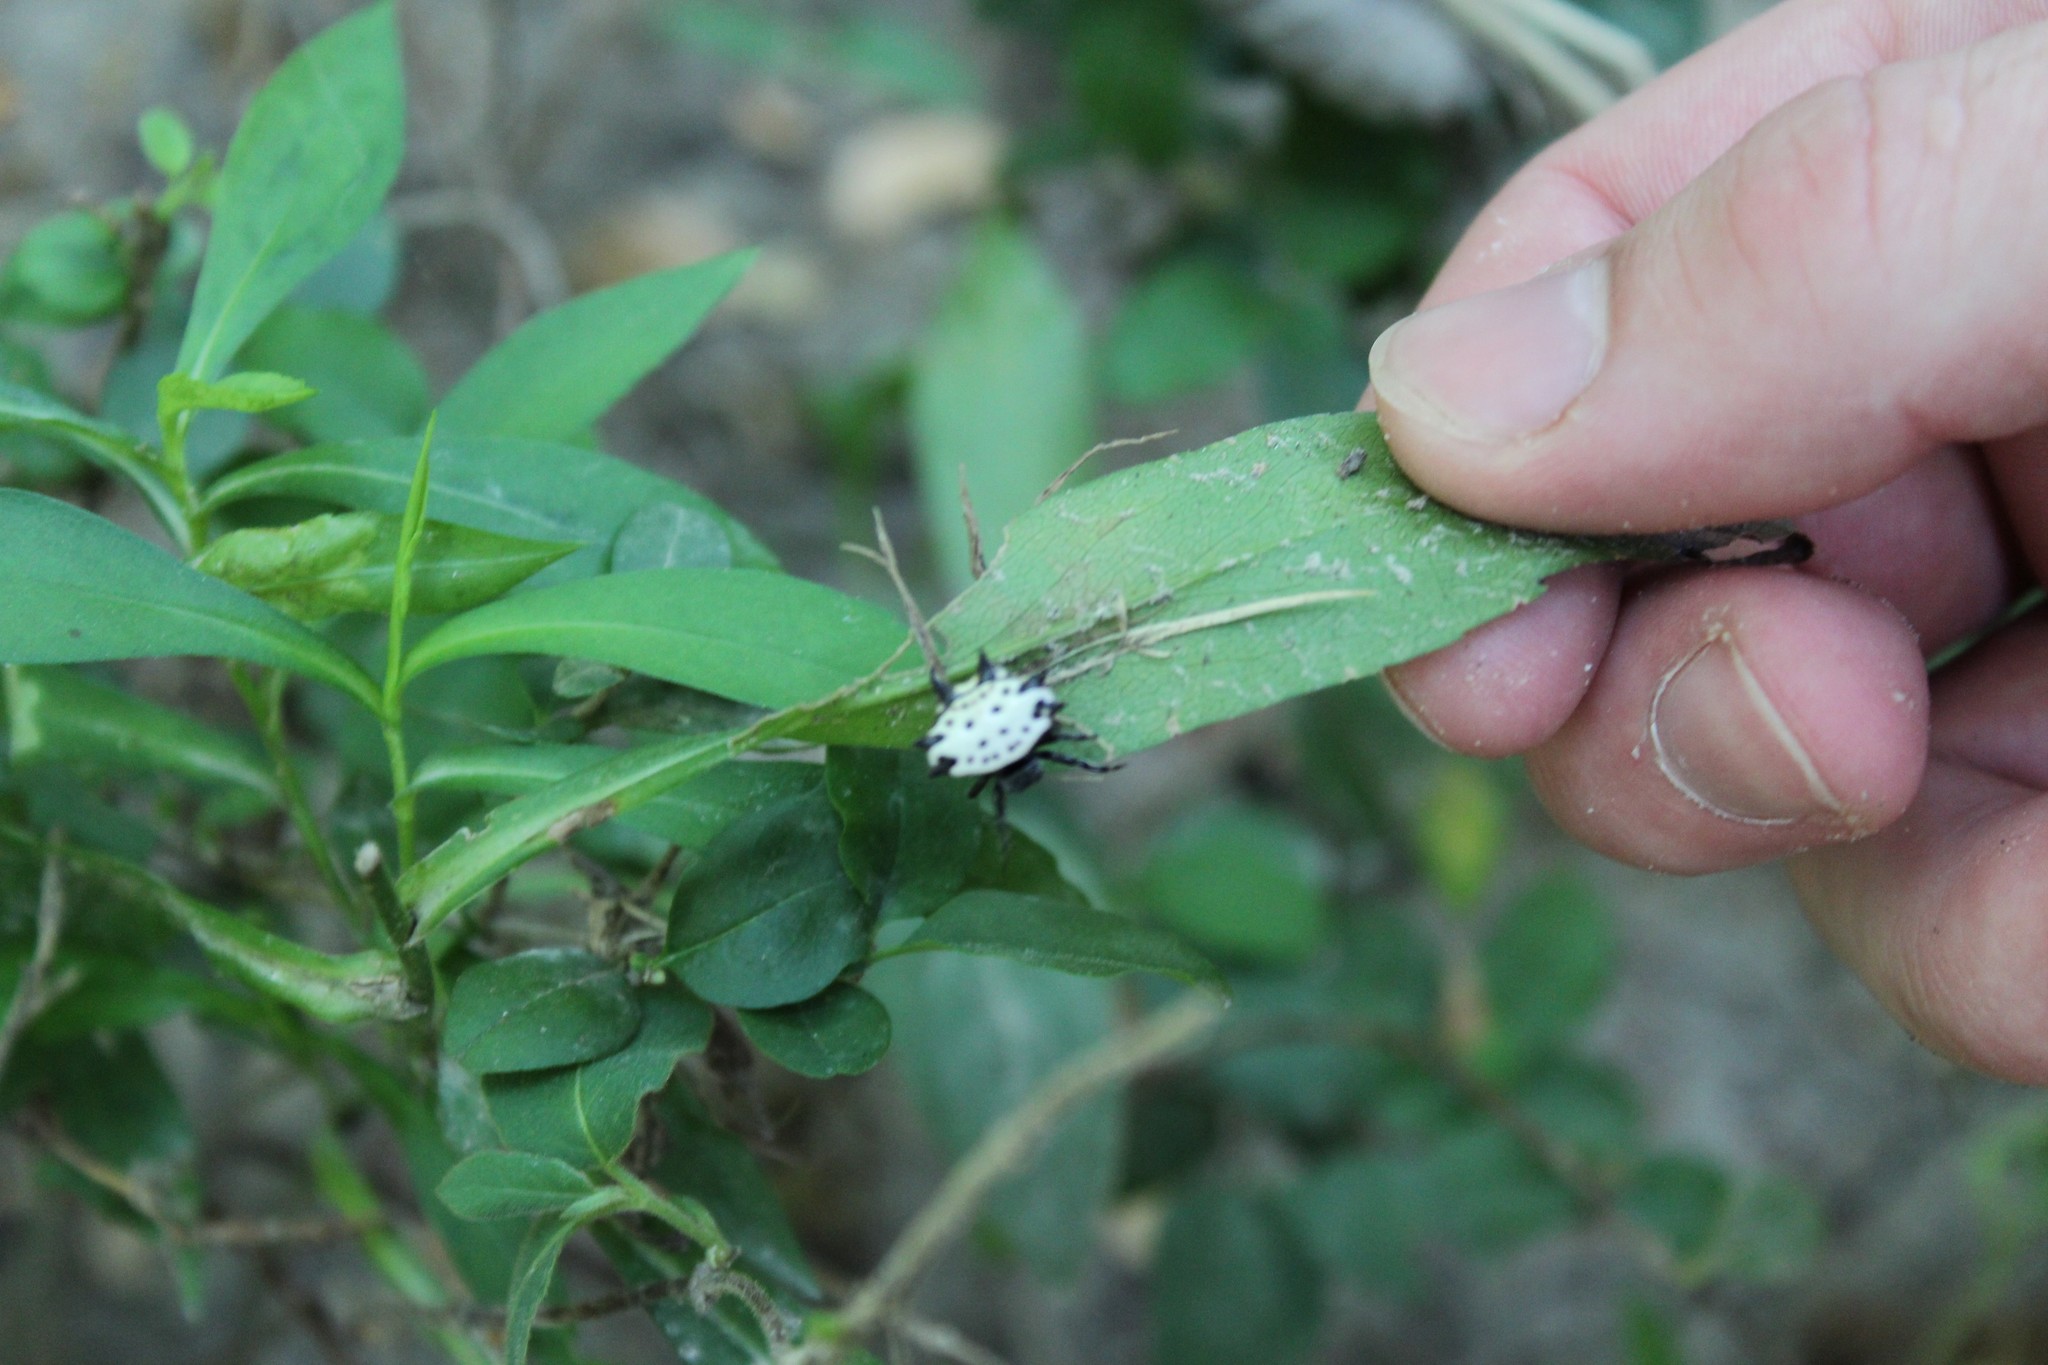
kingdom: Animalia
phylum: Arthropoda
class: Arachnida
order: Araneae
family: Araneidae
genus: Gasteracantha
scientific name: Gasteracantha cancriformis
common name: Orb weavers
